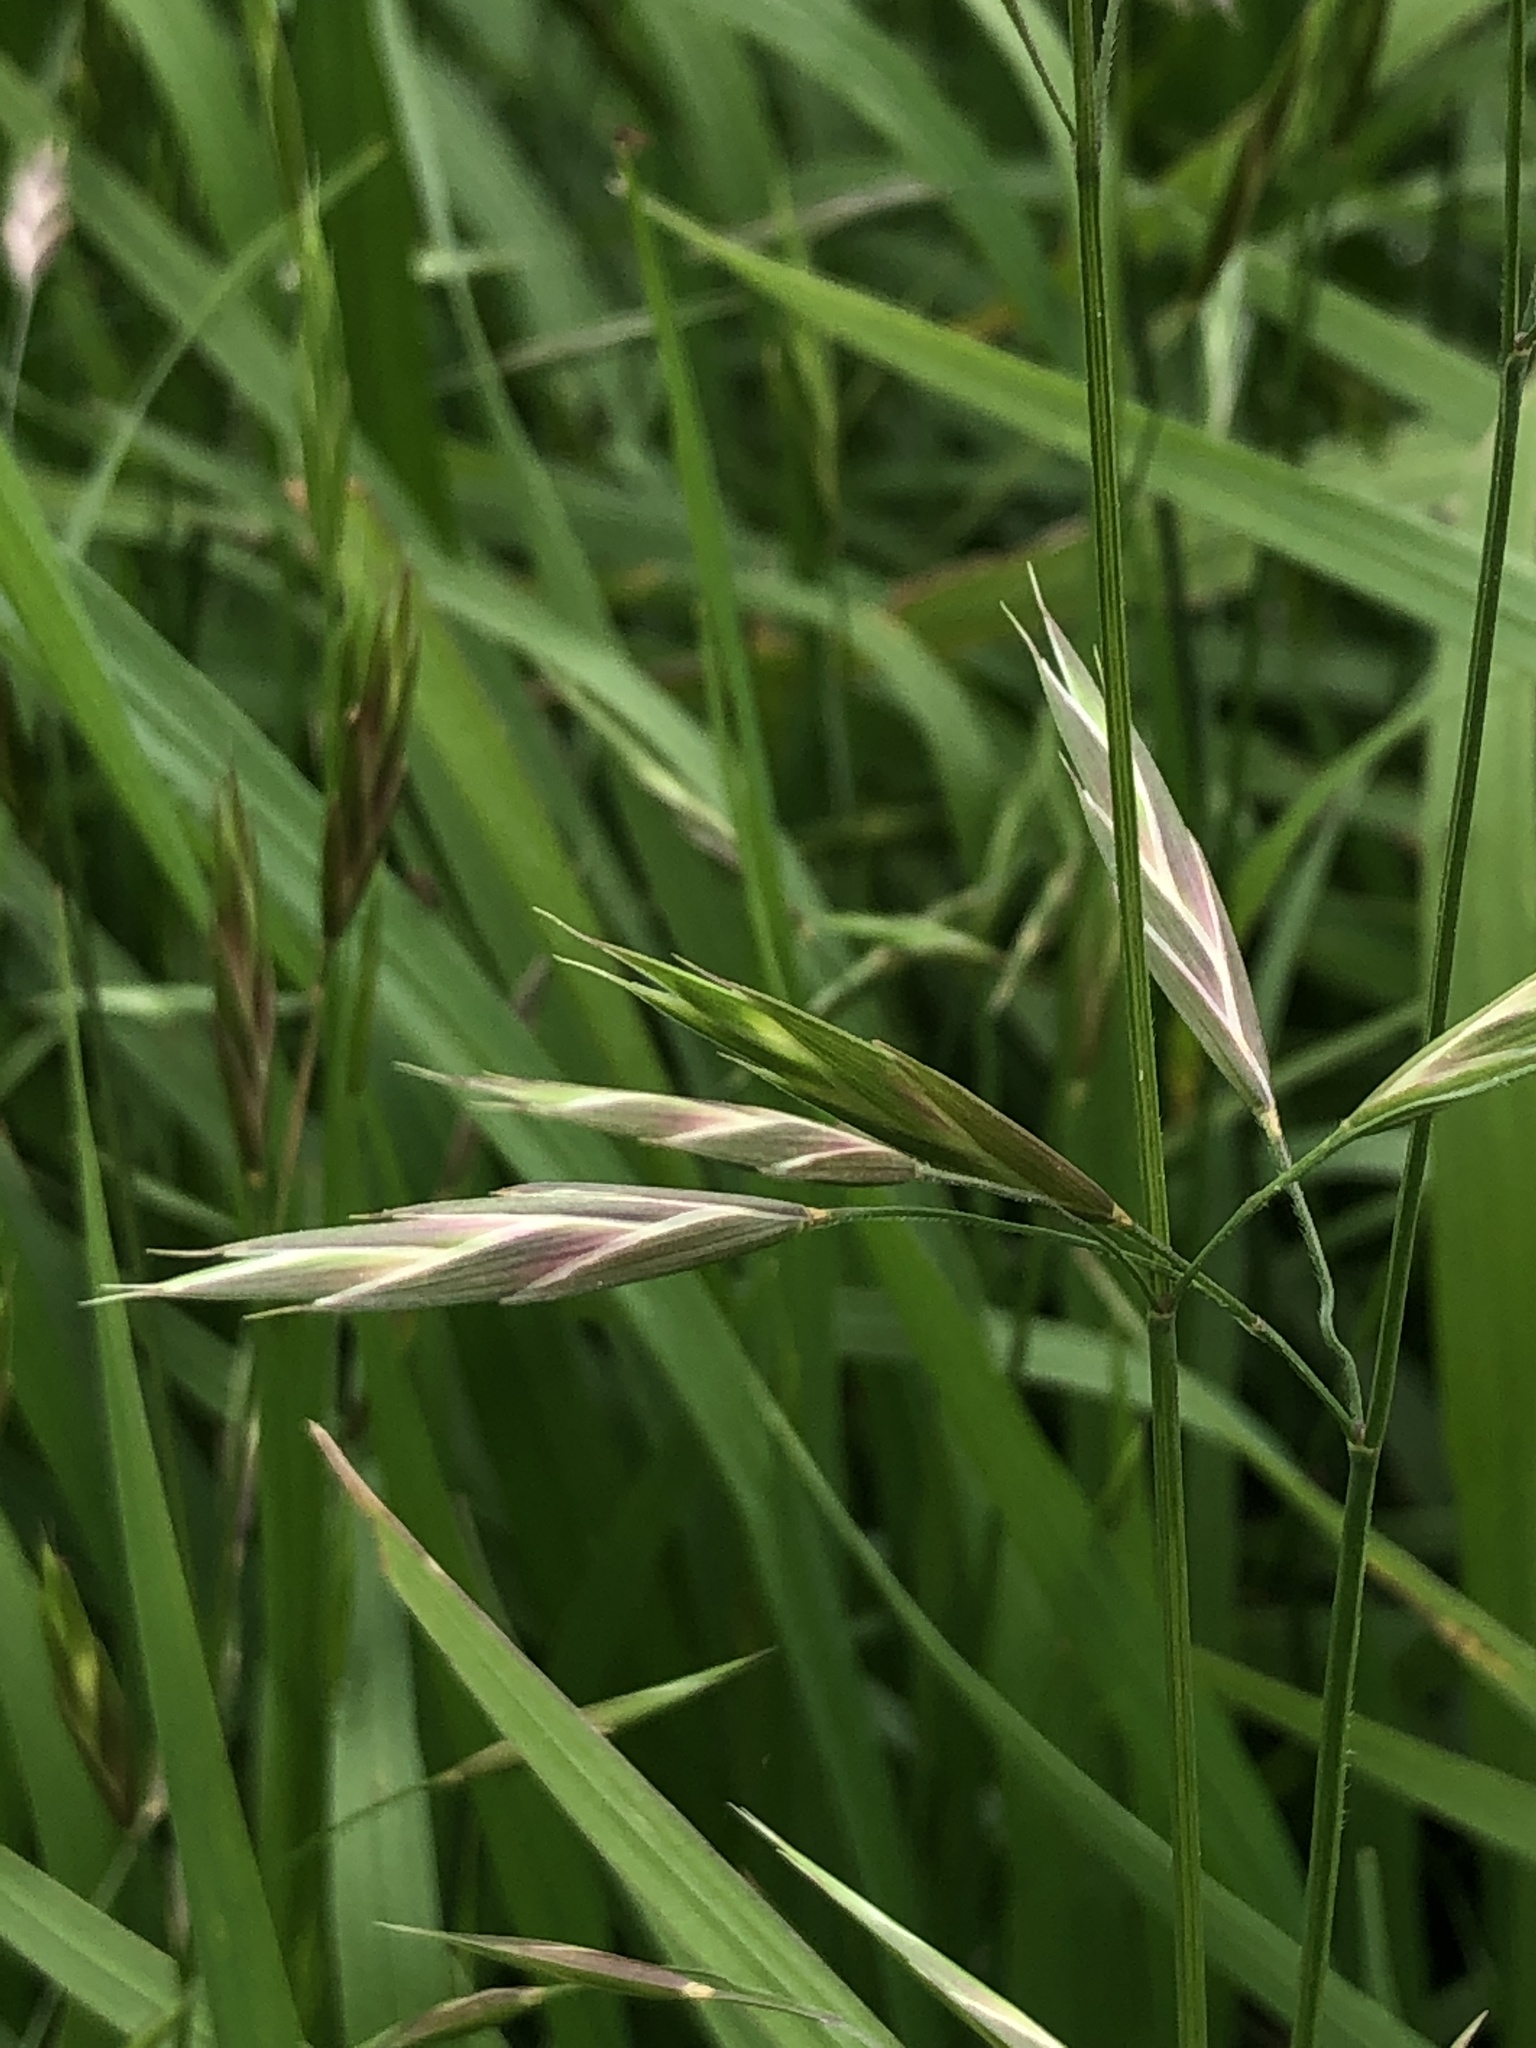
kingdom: Plantae
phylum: Tracheophyta
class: Liliopsida
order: Poales
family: Poaceae
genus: Bromus
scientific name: Bromus catharticus
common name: Rescuegrass
